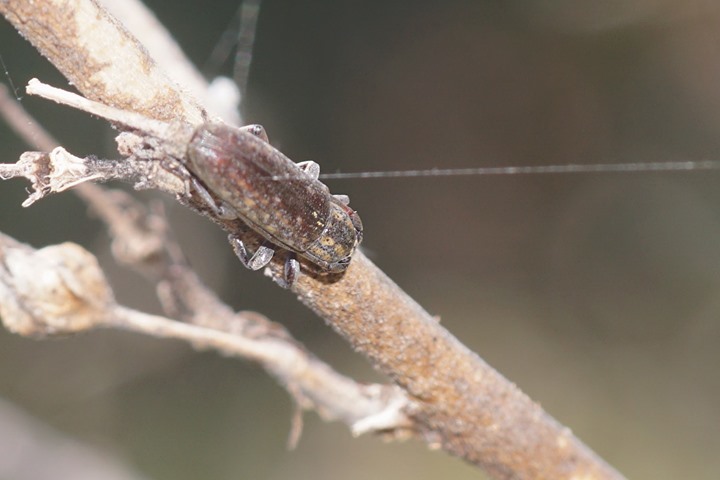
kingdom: Animalia
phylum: Arthropoda
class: Insecta
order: Coleoptera
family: Cerambycidae
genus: Mycerinopsis
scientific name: Mycerinopsis alternans
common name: Long horned beetle
